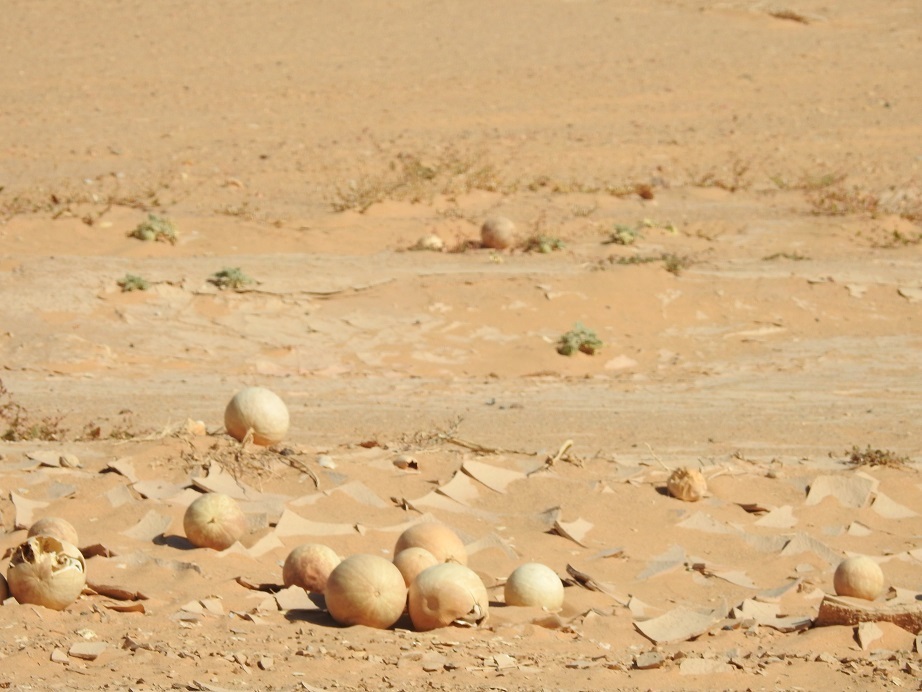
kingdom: Plantae
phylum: Tracheophyta
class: Magnoliopsida
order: Cucurbitales
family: Cucurbitaceae
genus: Citrullus
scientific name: Citrullus colocynthis
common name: Colocynth
